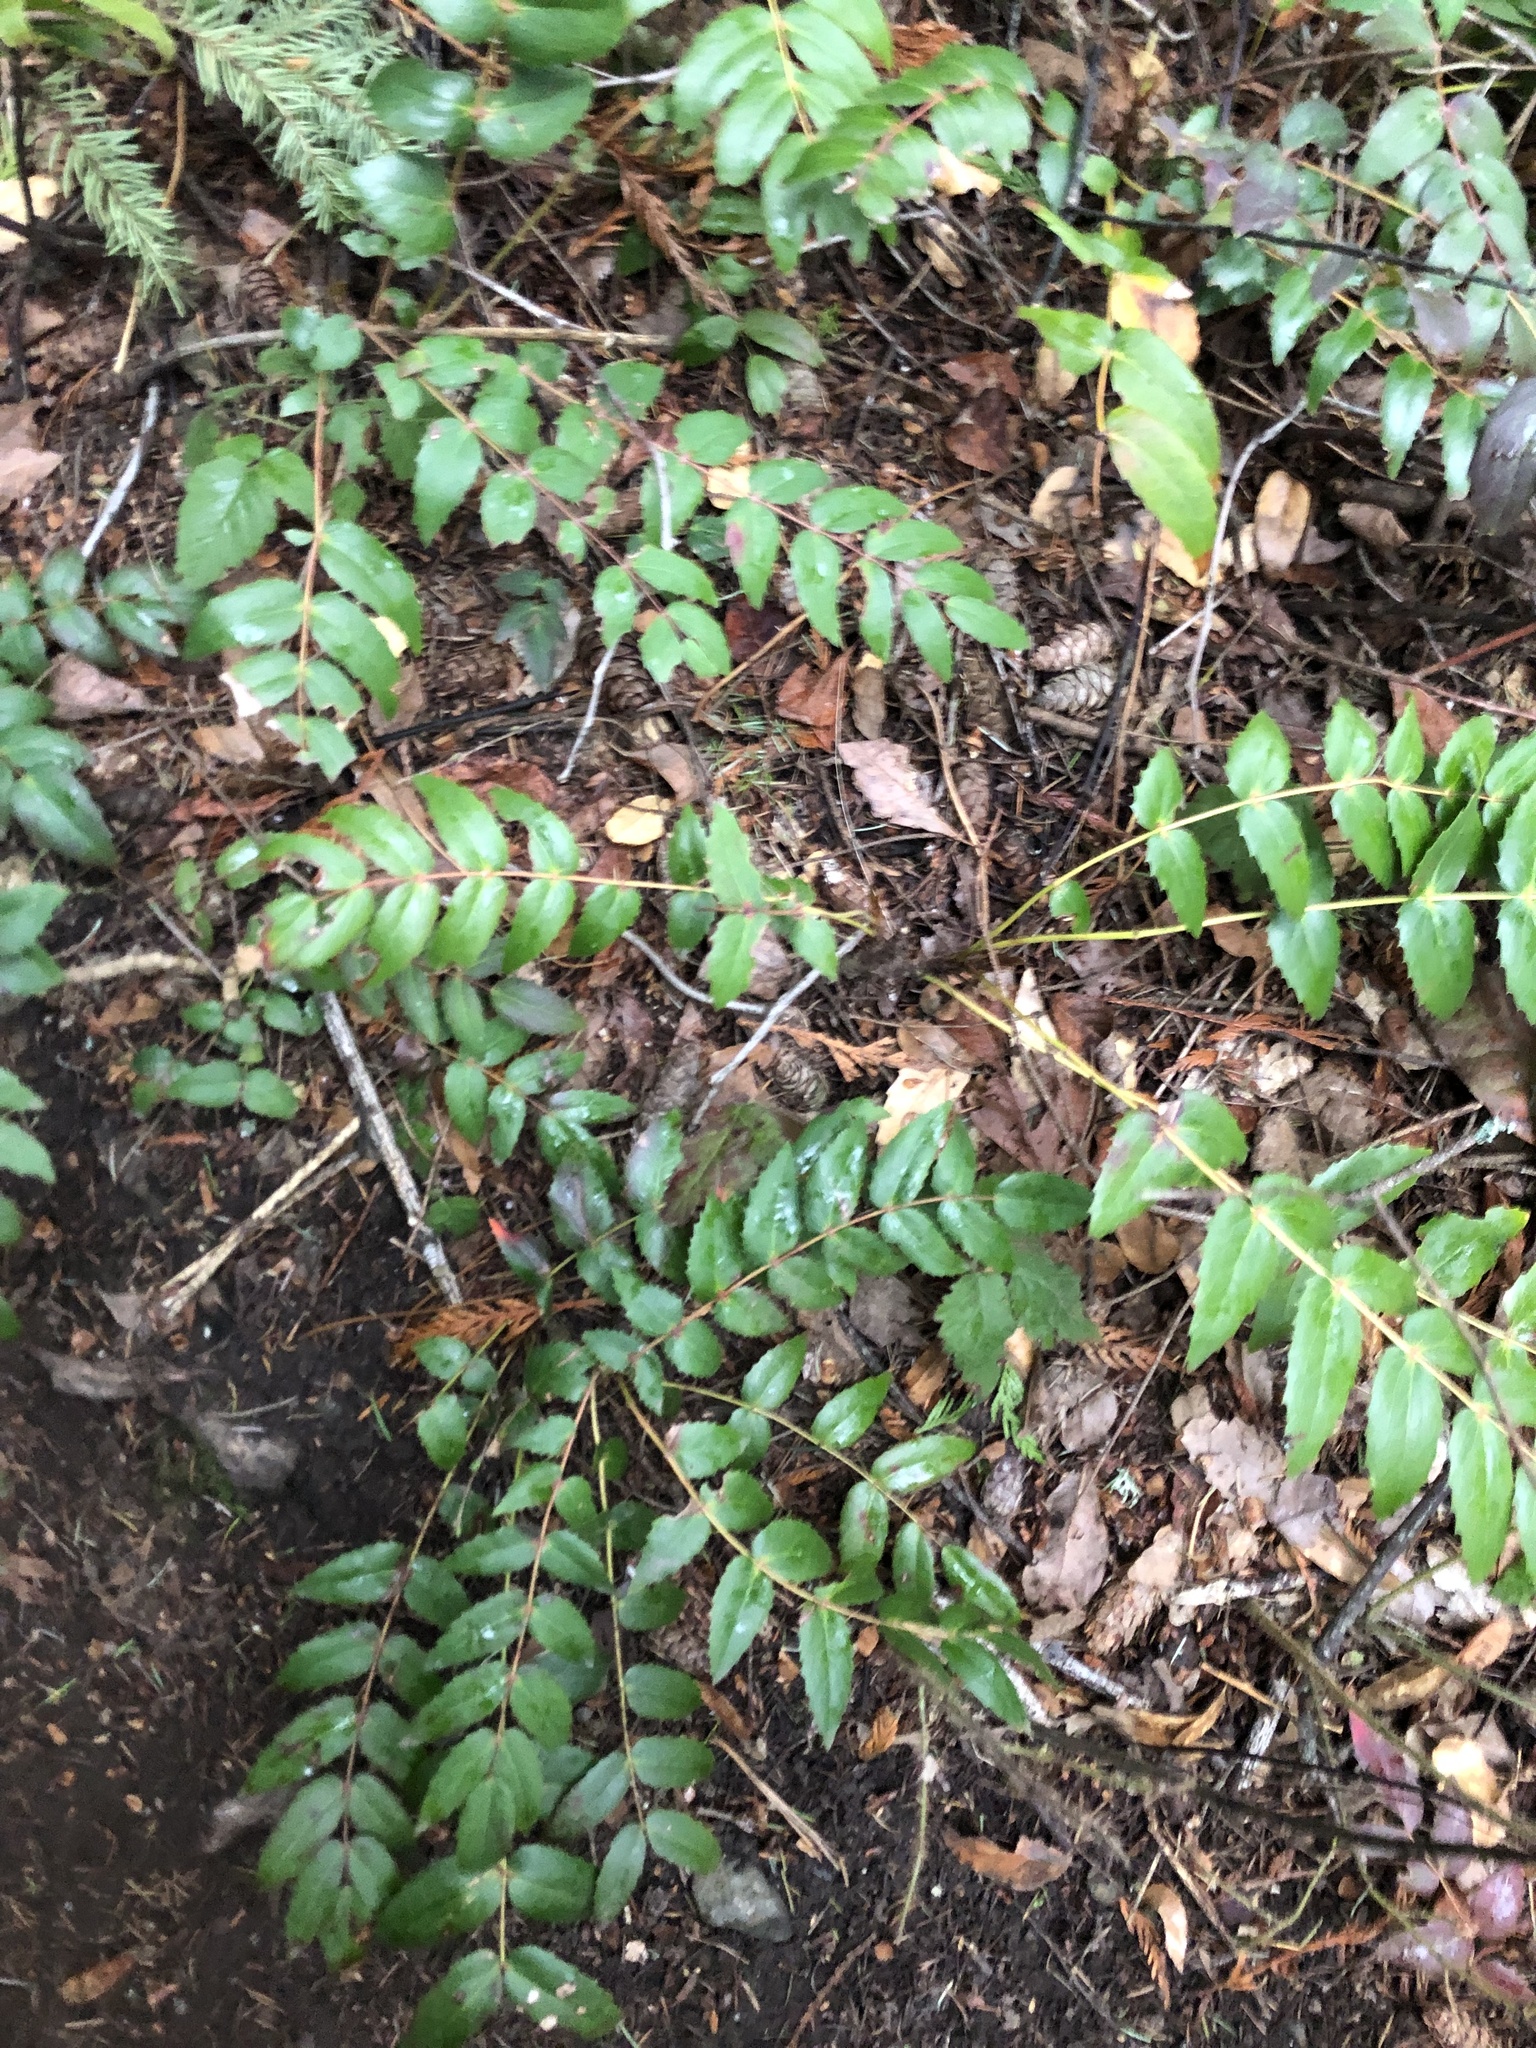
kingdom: Plantae
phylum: Tracheophyta
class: Magnoliopsida
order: Ranunculales
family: Berberidaceae
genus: Mahonia
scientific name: Mahonia nervosa
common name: Cascade oregon-grape
